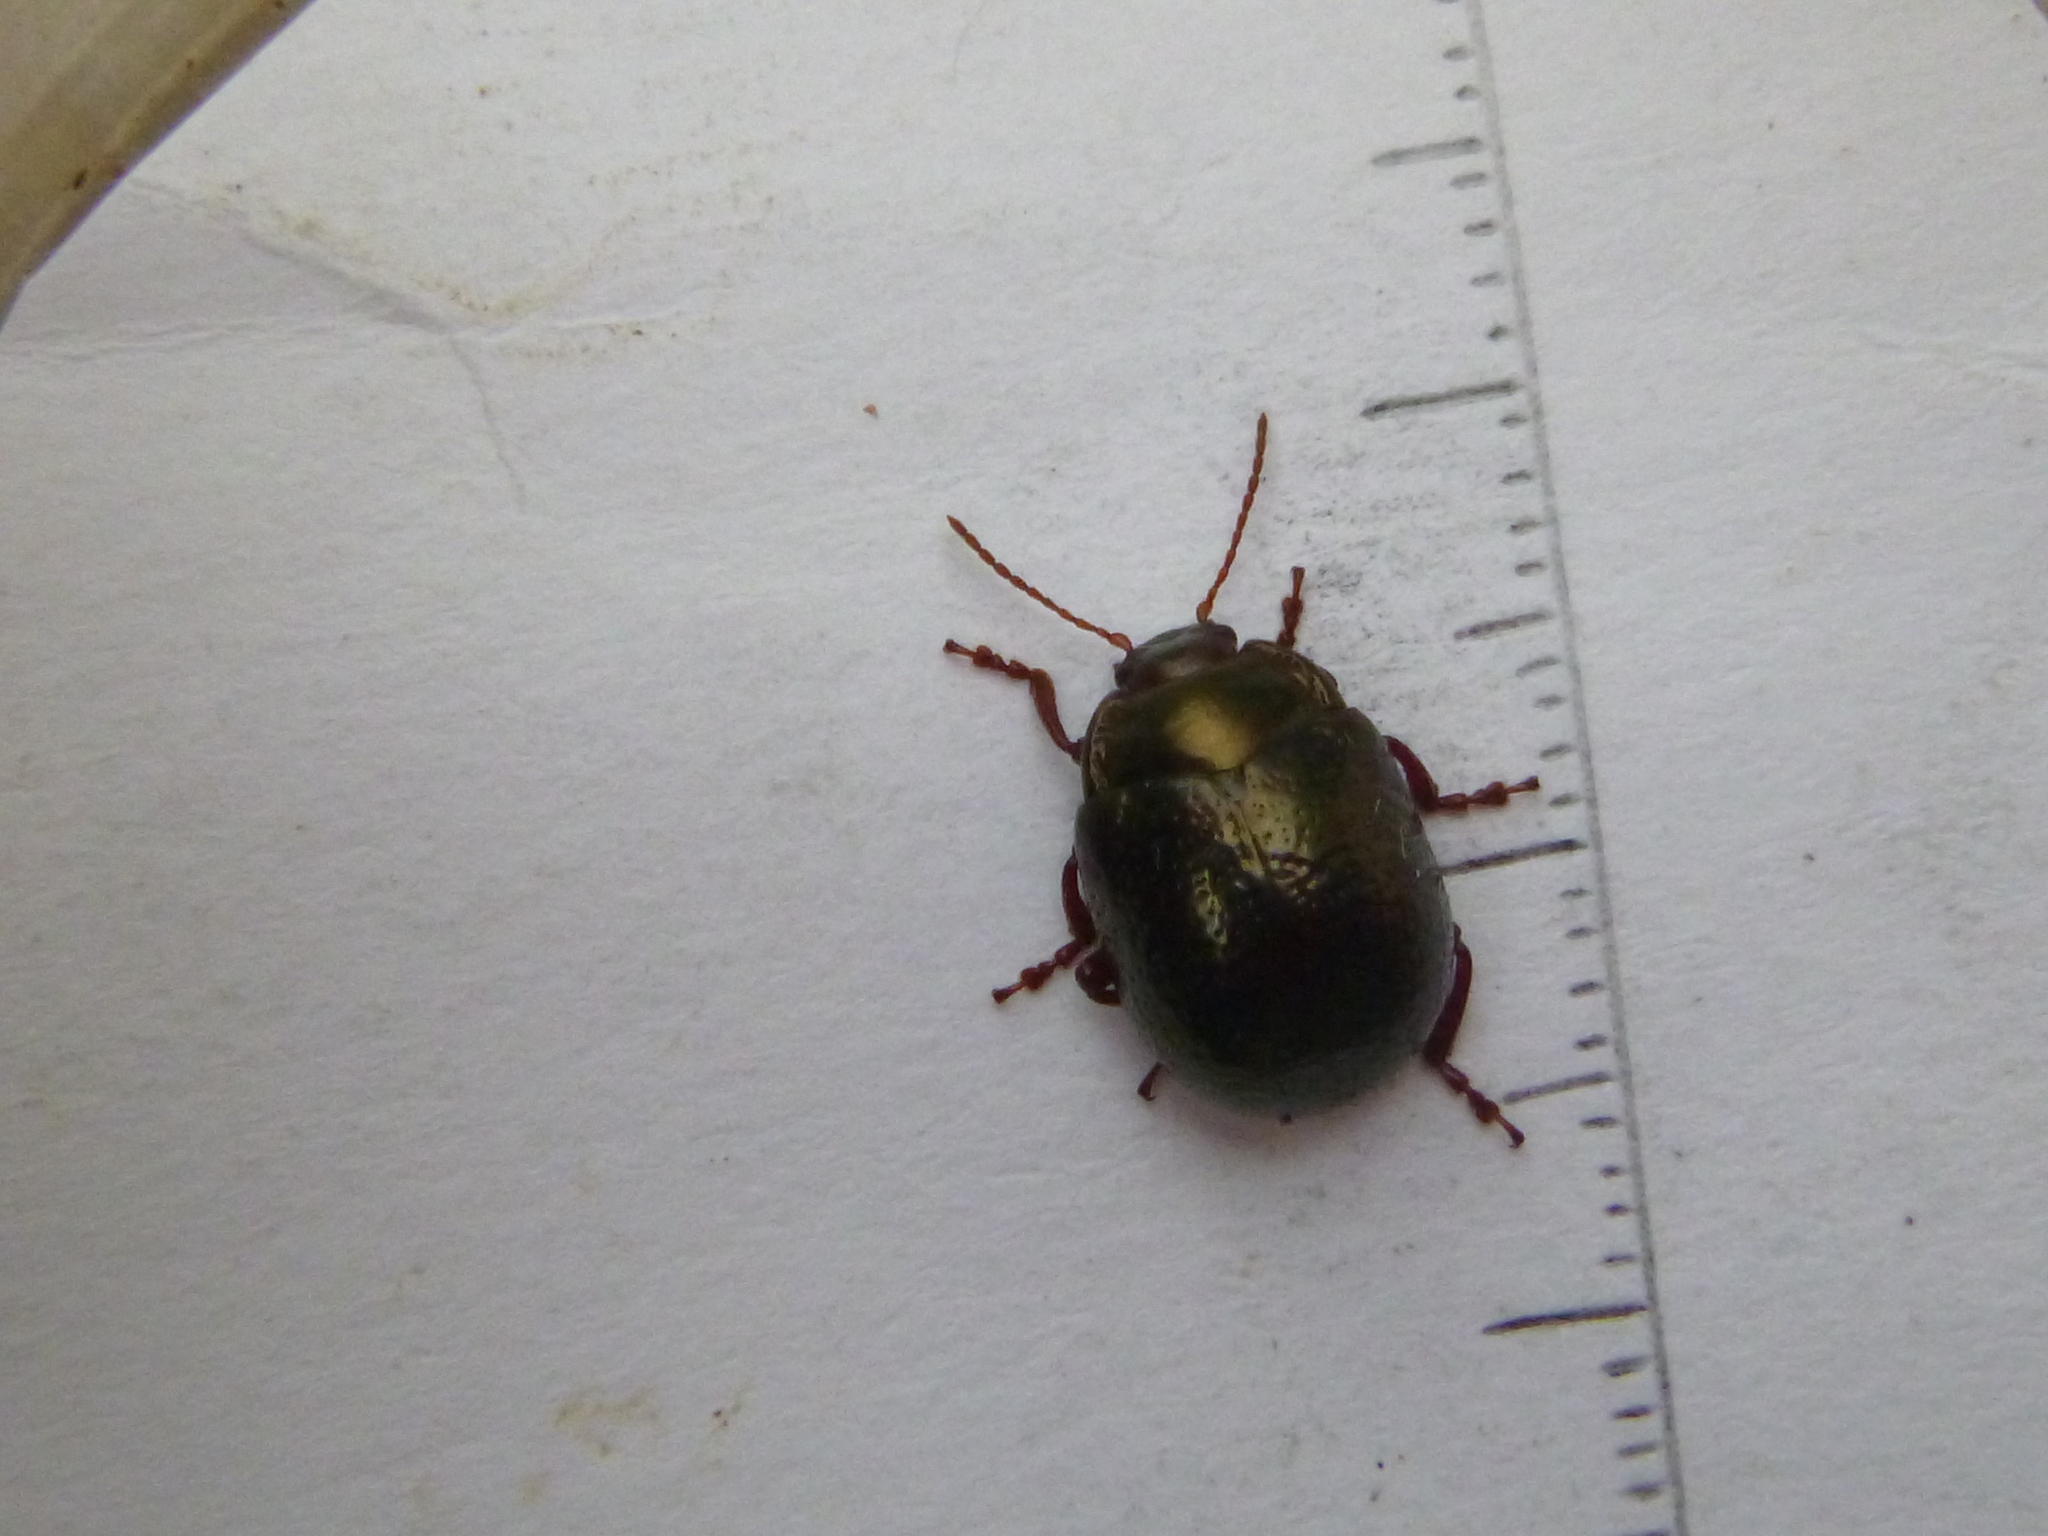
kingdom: Animalia
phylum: Arthropoda
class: Insecta
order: Coleoptera
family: Chrysomelidae
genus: Chrysolina
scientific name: Chrysolina bankii
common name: Leaf beetle
